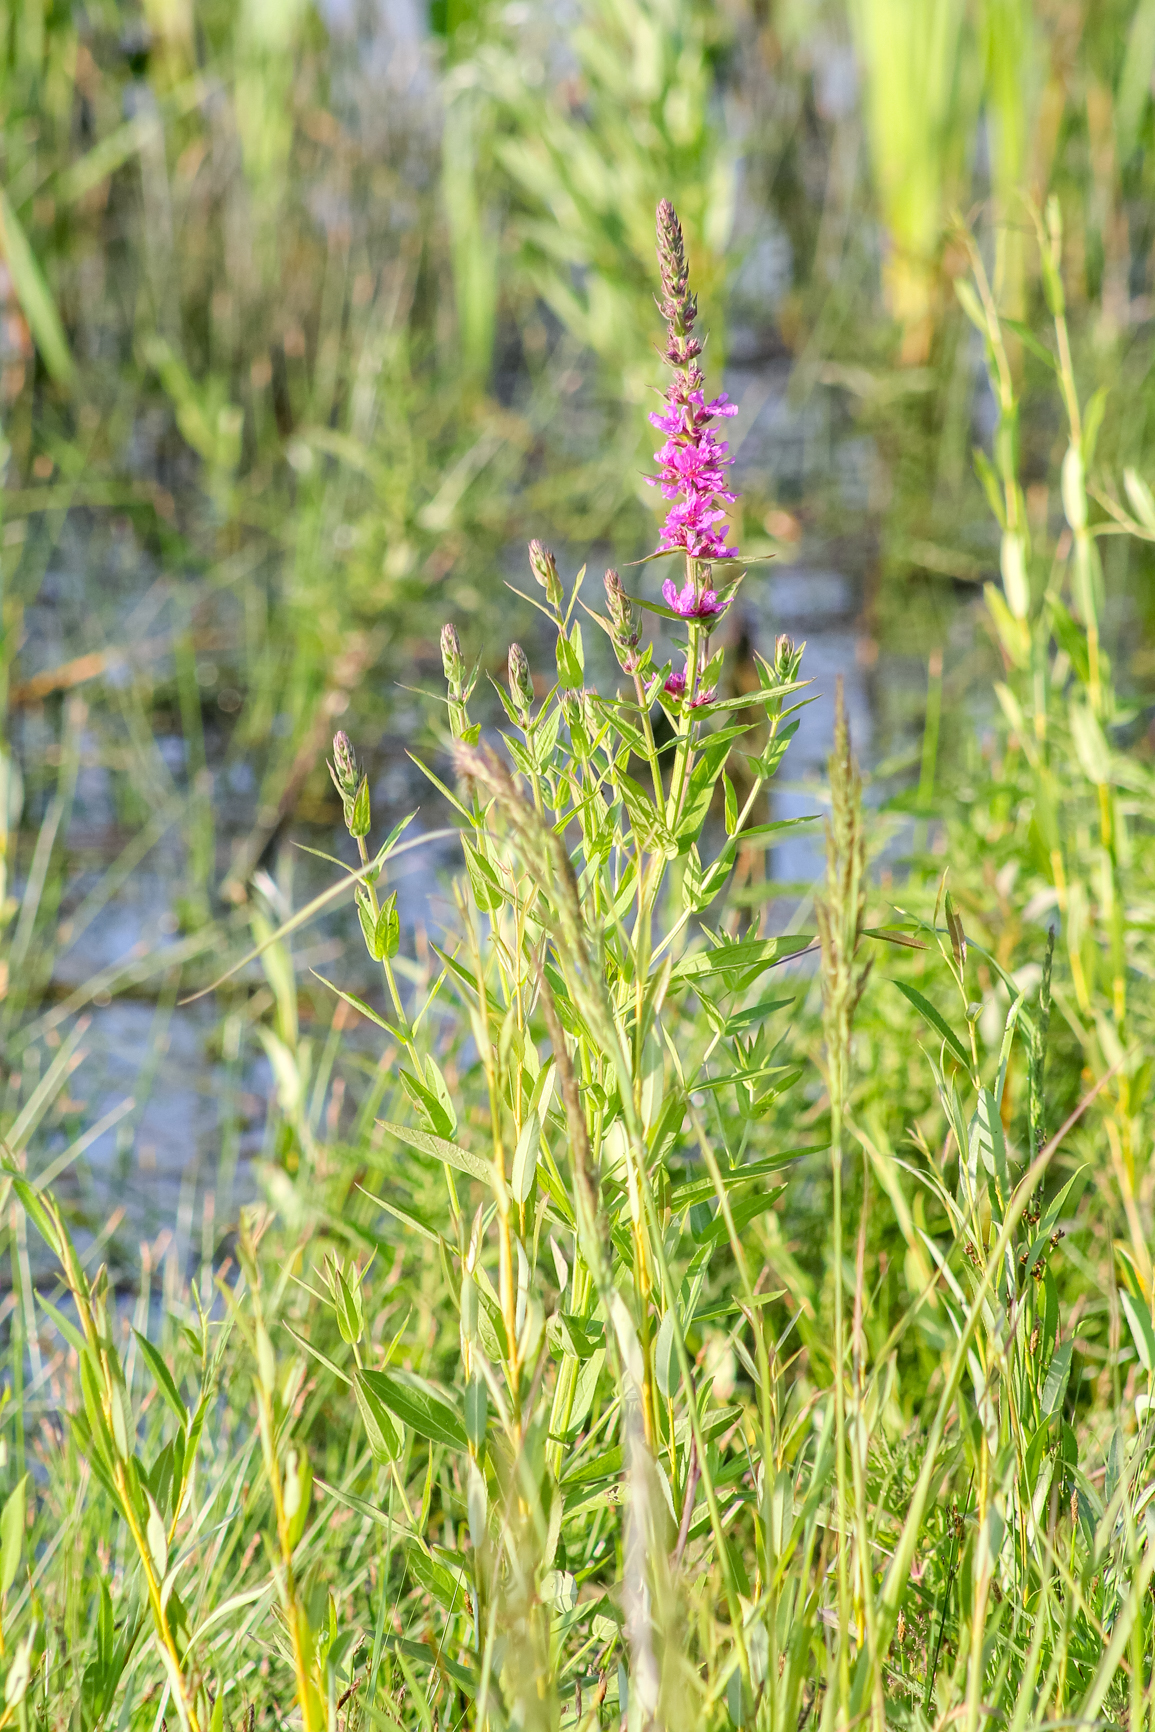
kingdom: Plantae
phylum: Tracheophyta
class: Magnoliopsida
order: Myrtales
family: Lythraceae
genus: Lythrum
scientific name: Lythrum salicaria
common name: Purple loosestrife
